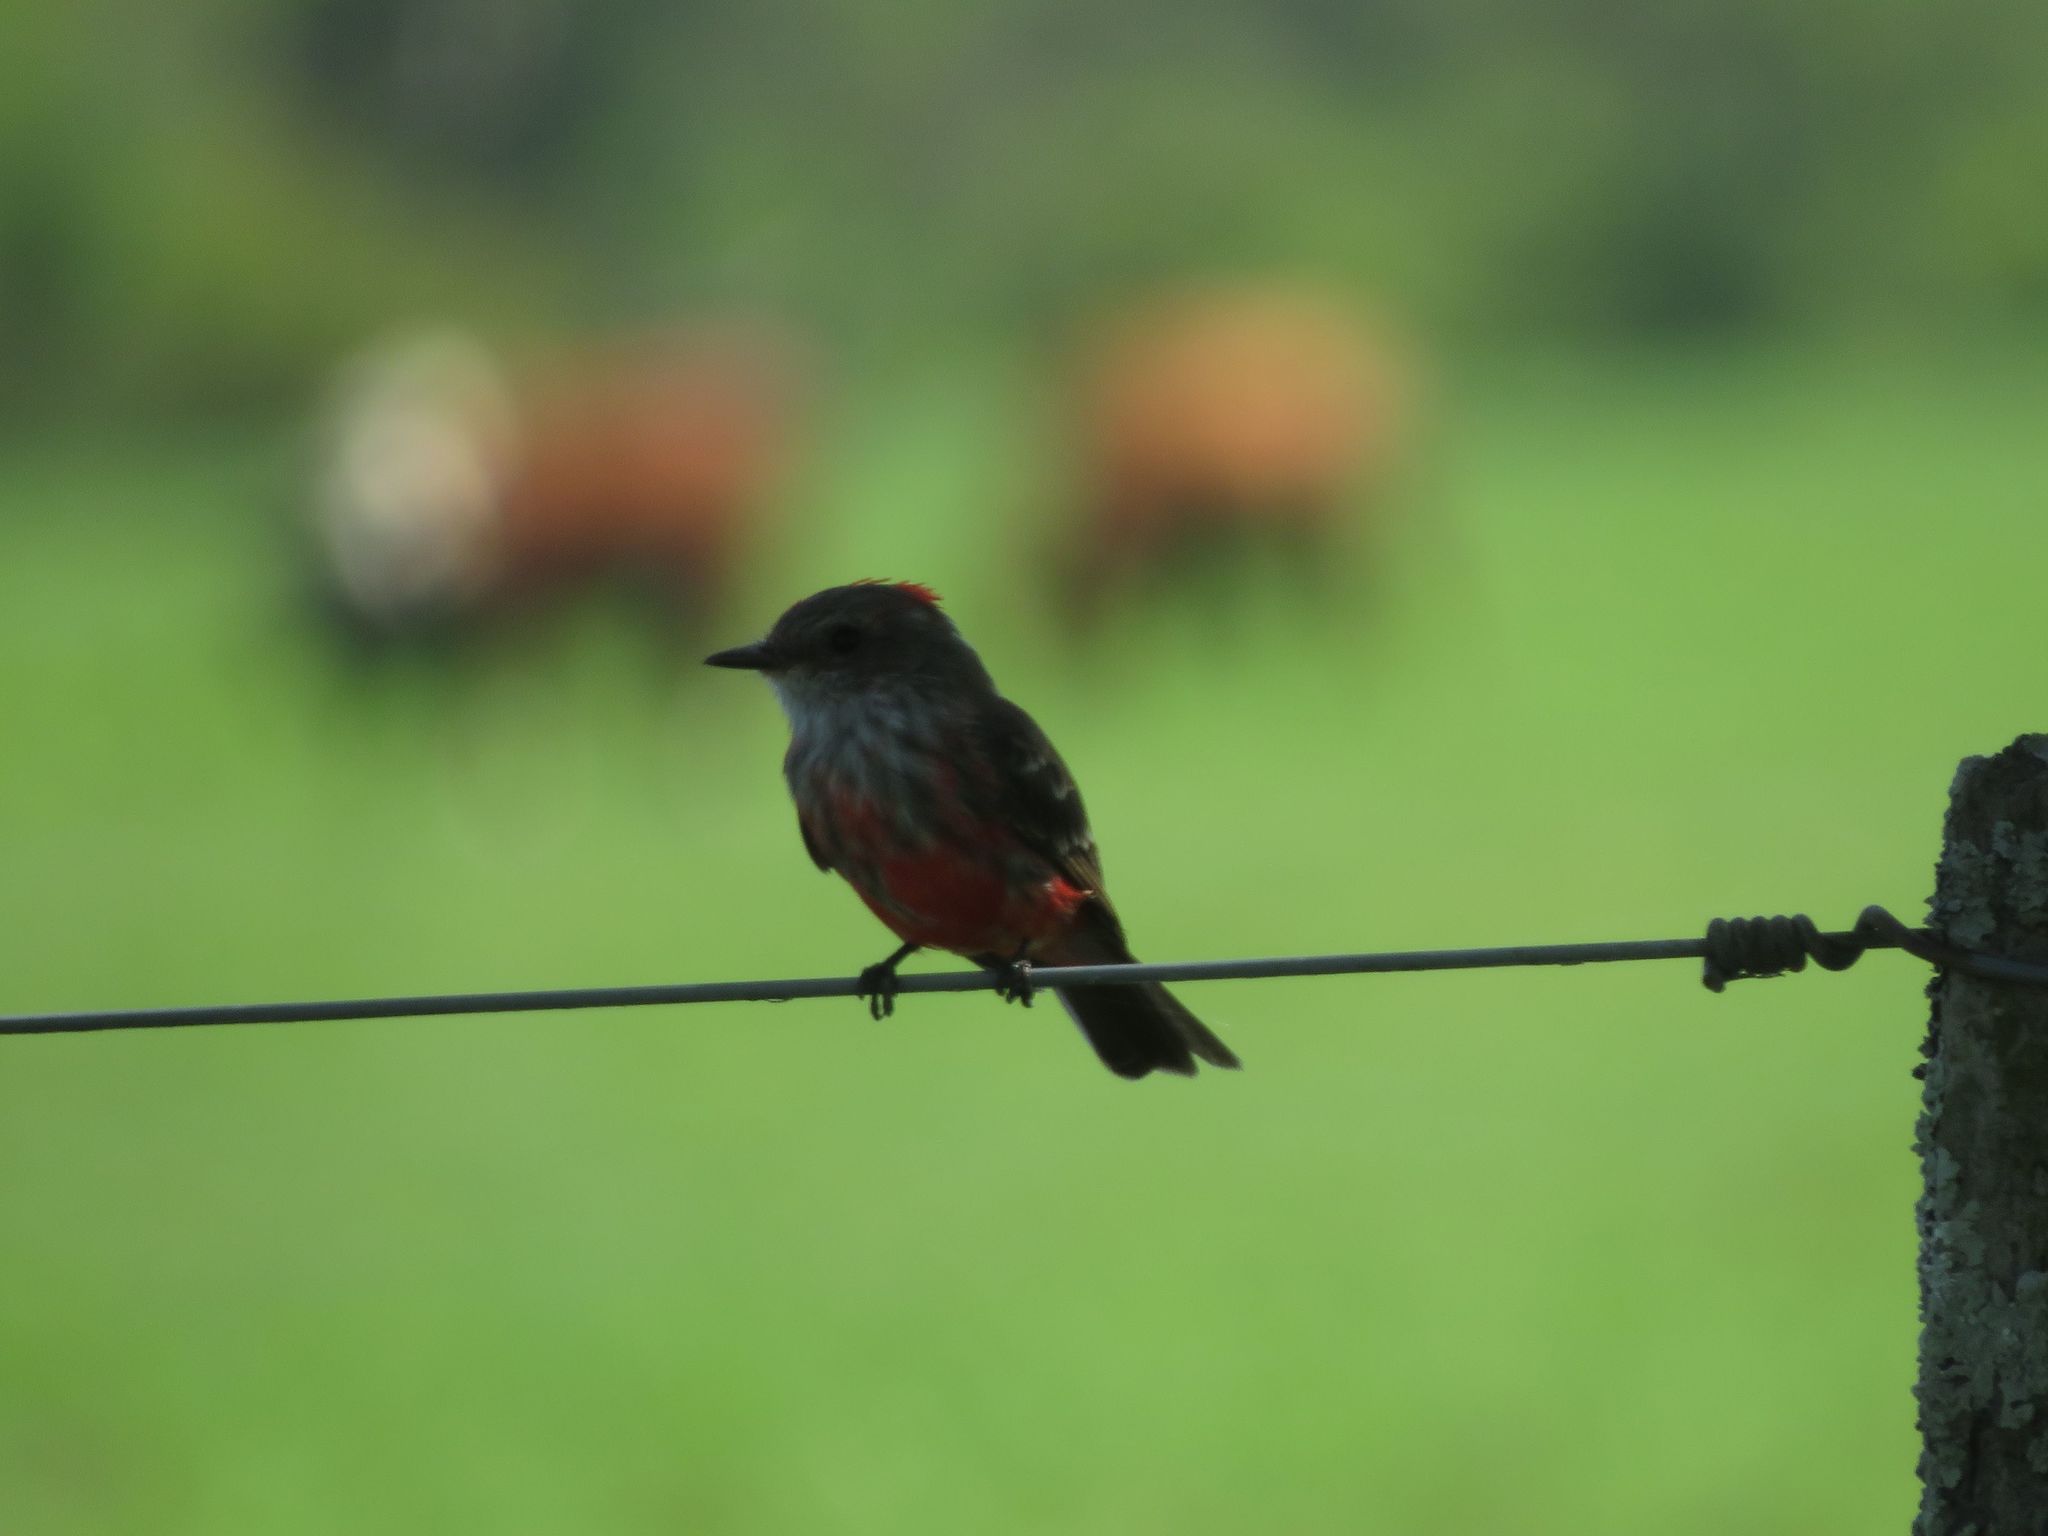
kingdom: Animalia
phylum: Chordata
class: Aves
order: Passeriformes
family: Tyrannidae
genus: Pyrocephalus
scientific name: Pyrocephalus rubinus
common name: Vermilion flycatcher
